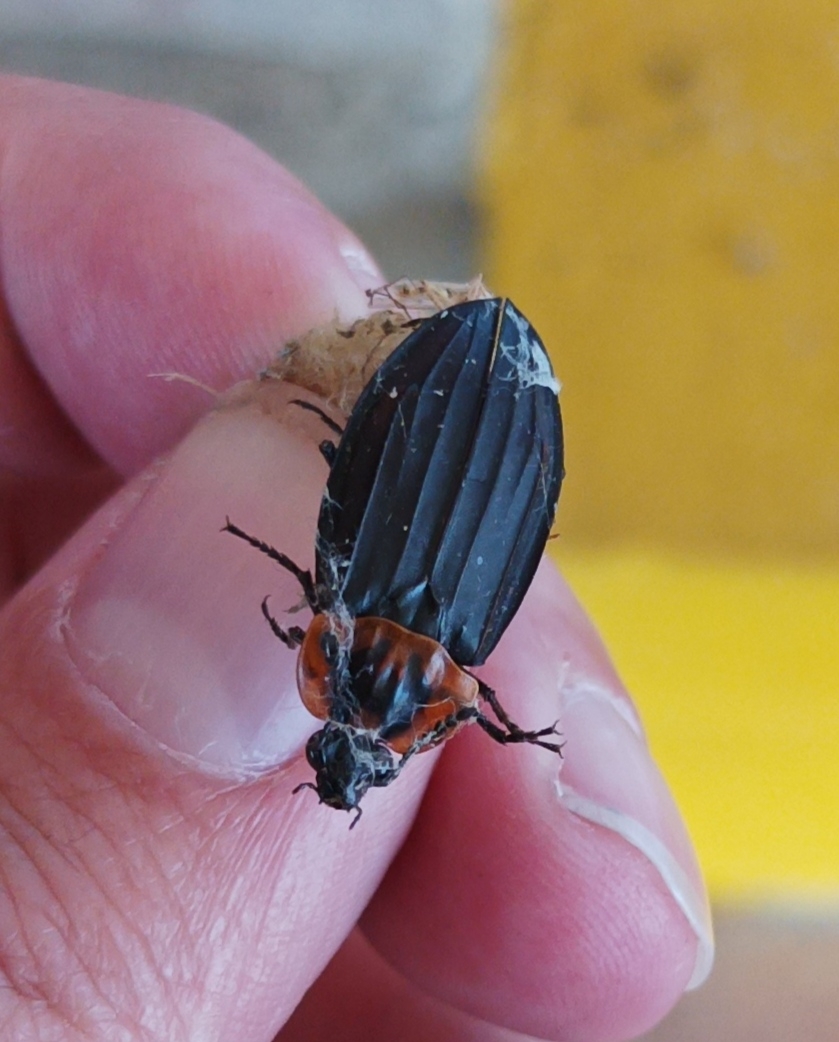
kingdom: Animalia
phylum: Arthropoda
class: Insecta
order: Coleoptera
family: Staphylinidae
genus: Oxelytrum
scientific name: Oxelytrum discicolle
